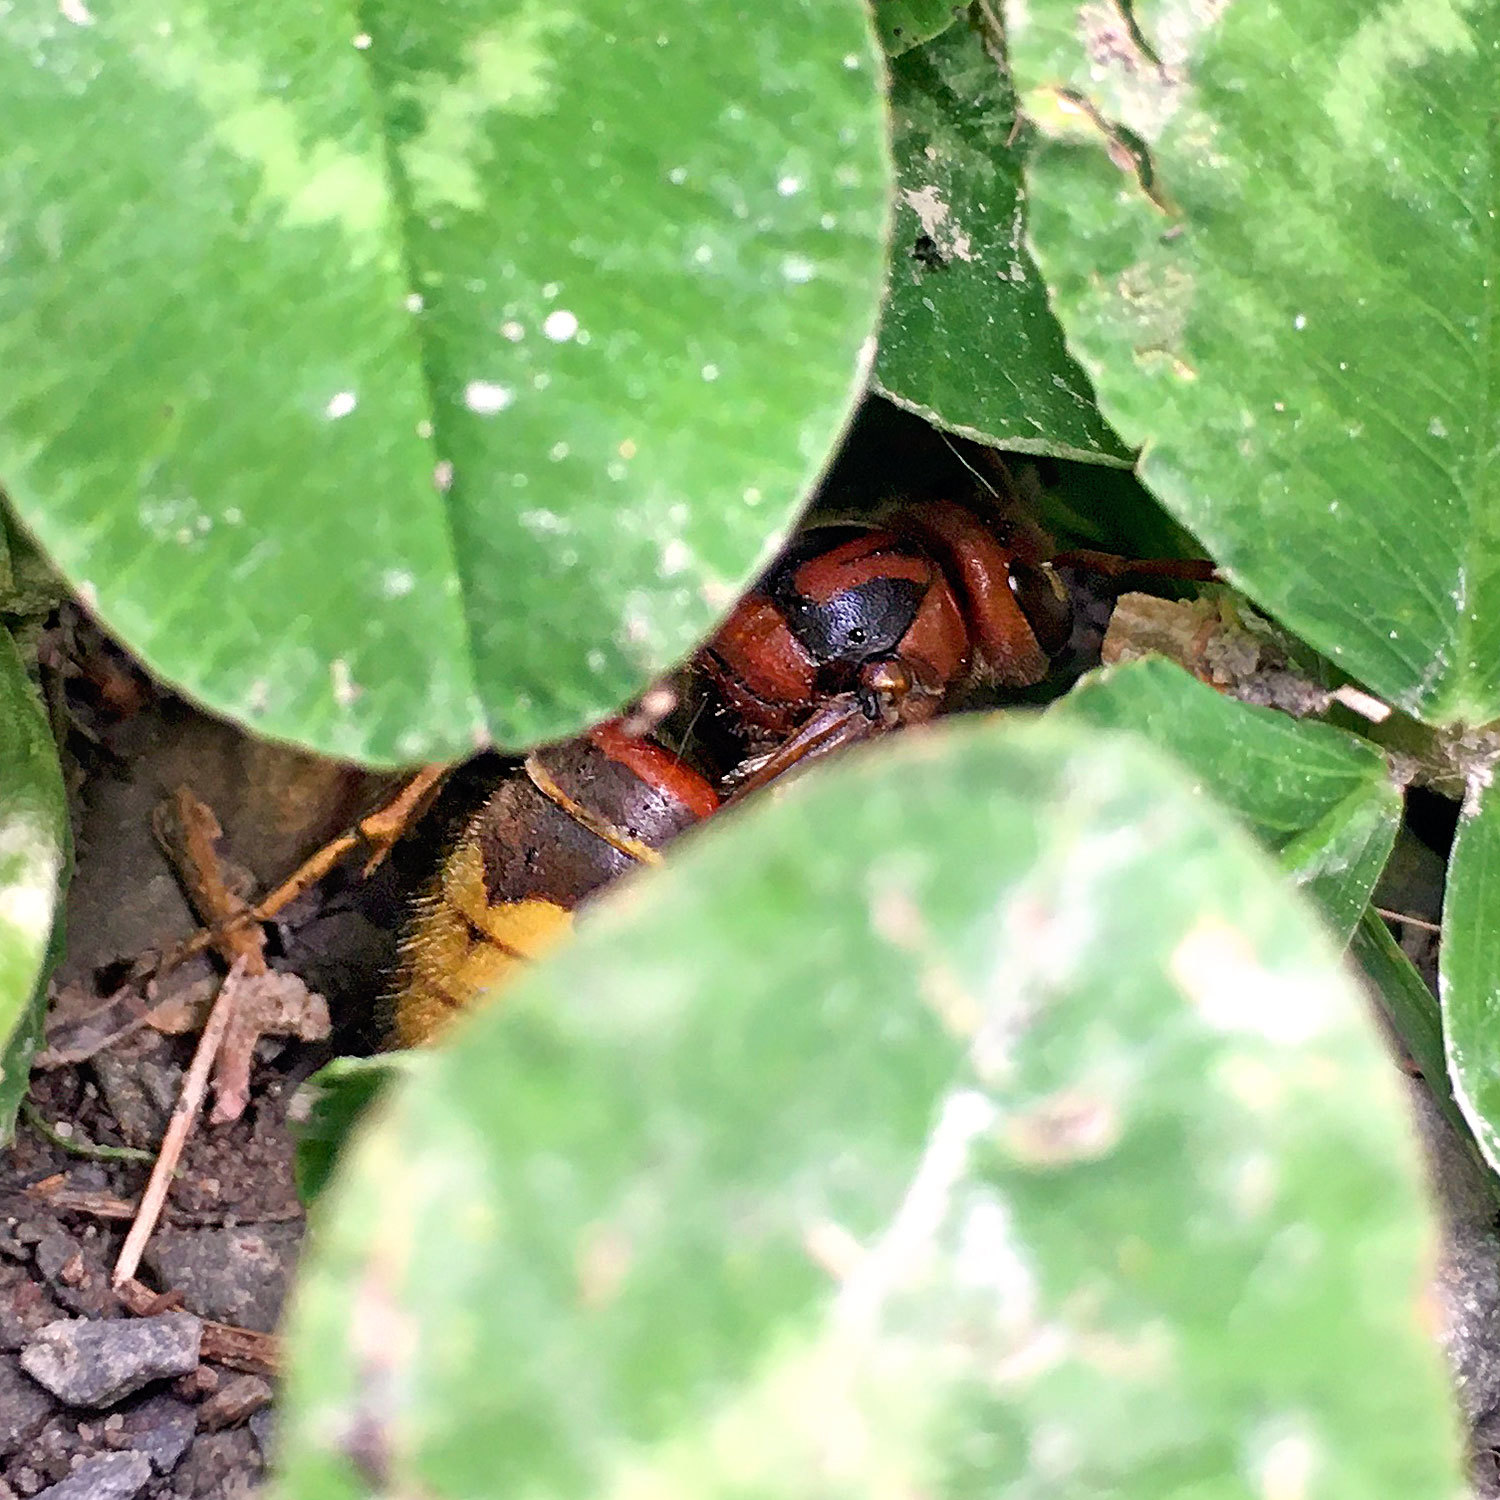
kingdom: Animalia
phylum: Arthropoda
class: Insecta
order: Hymenoptera
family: Vespidae
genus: Vespa
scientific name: Vespa crabro
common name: Hornet
